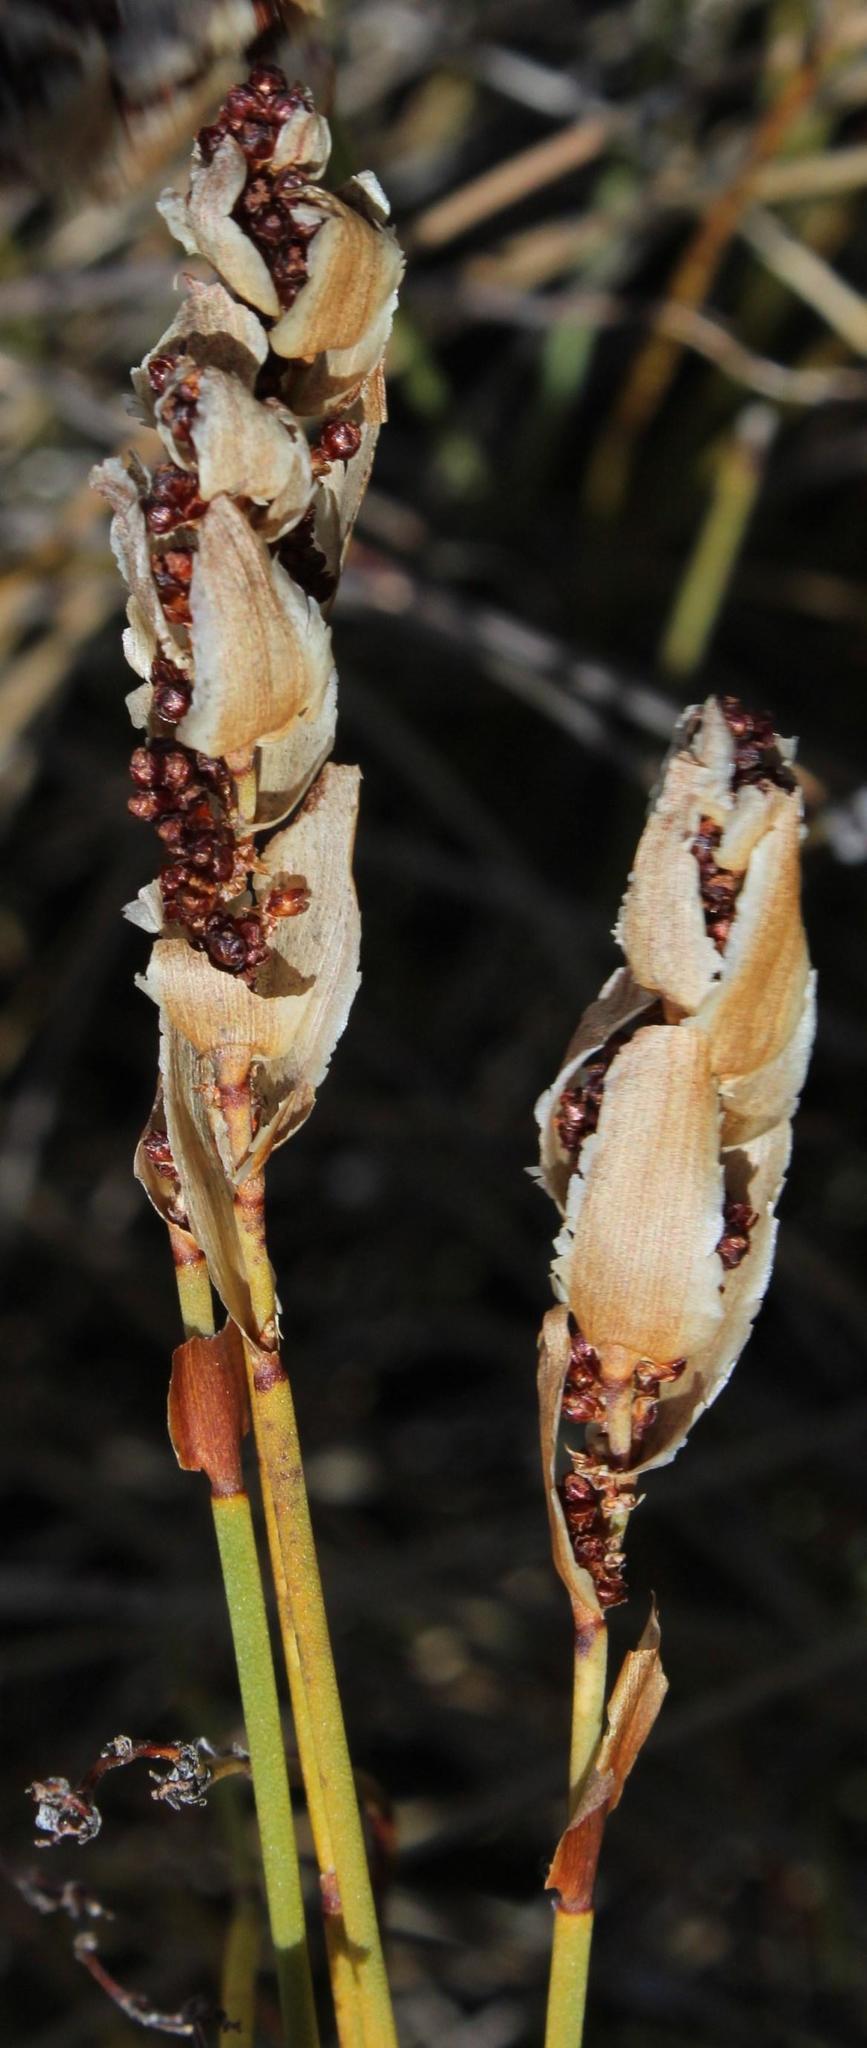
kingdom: Plantae
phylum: Tracheophyta
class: Liliopsida
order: Poales
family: Restionaceae
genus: Elegia
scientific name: Elegia filacea
